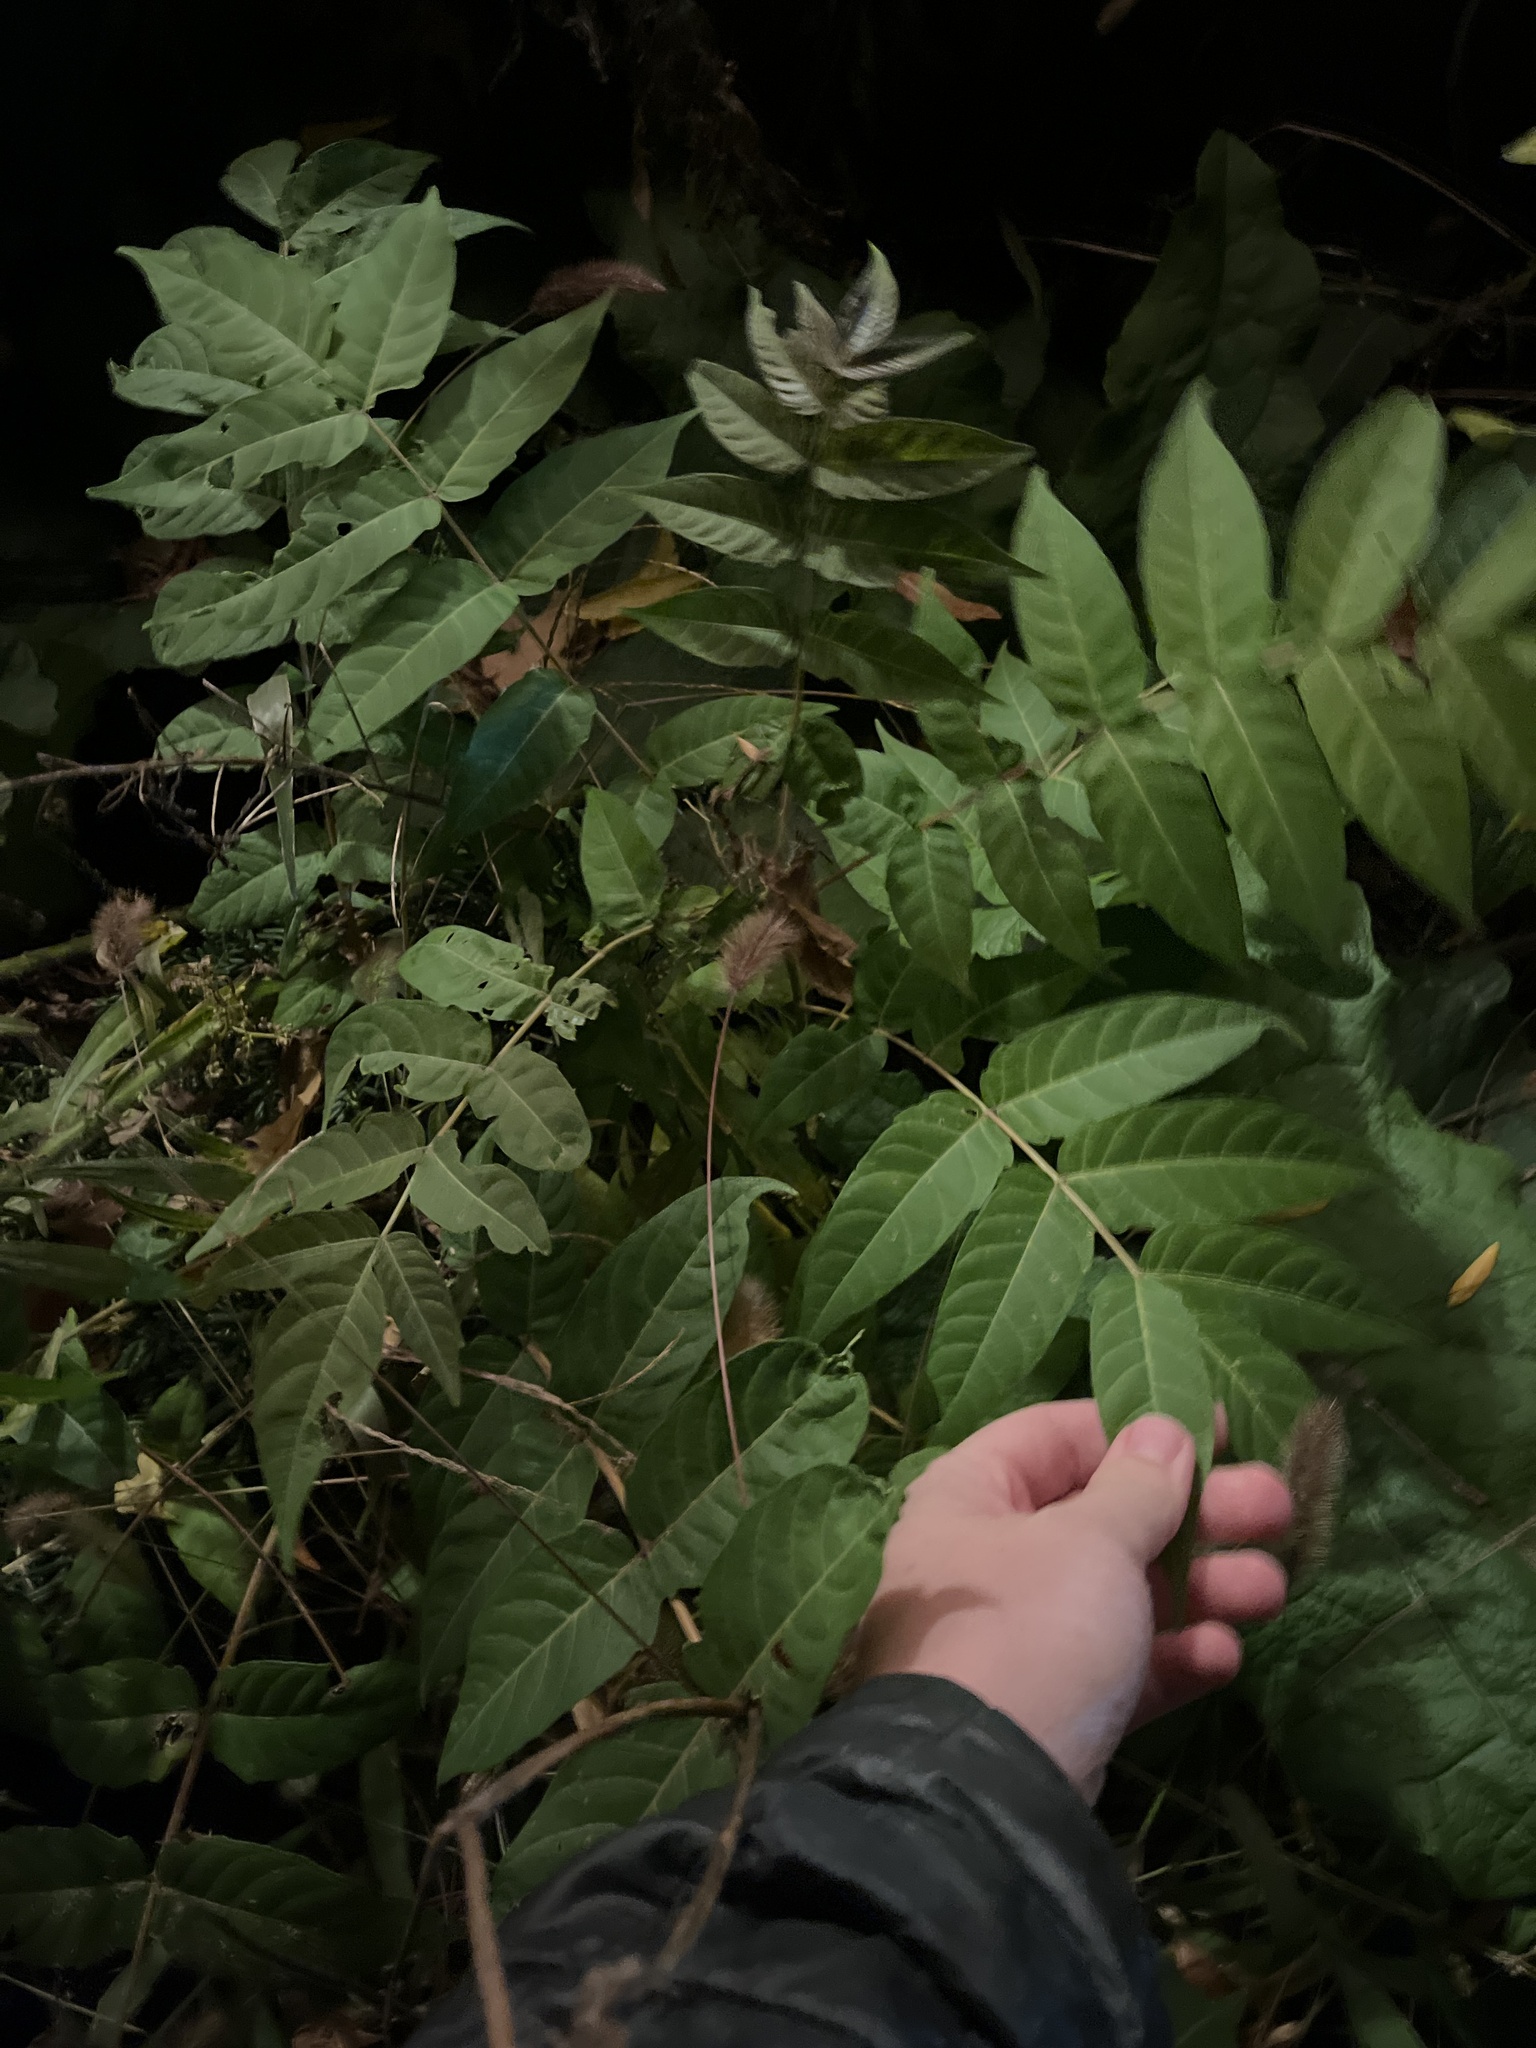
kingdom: Plantae
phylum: Tracheophyta
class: Magnoliopsida
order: Sapindales
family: Simaroubaceae
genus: Ailanthus
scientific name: Ailanthus altissima
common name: Tree-of-heaven
